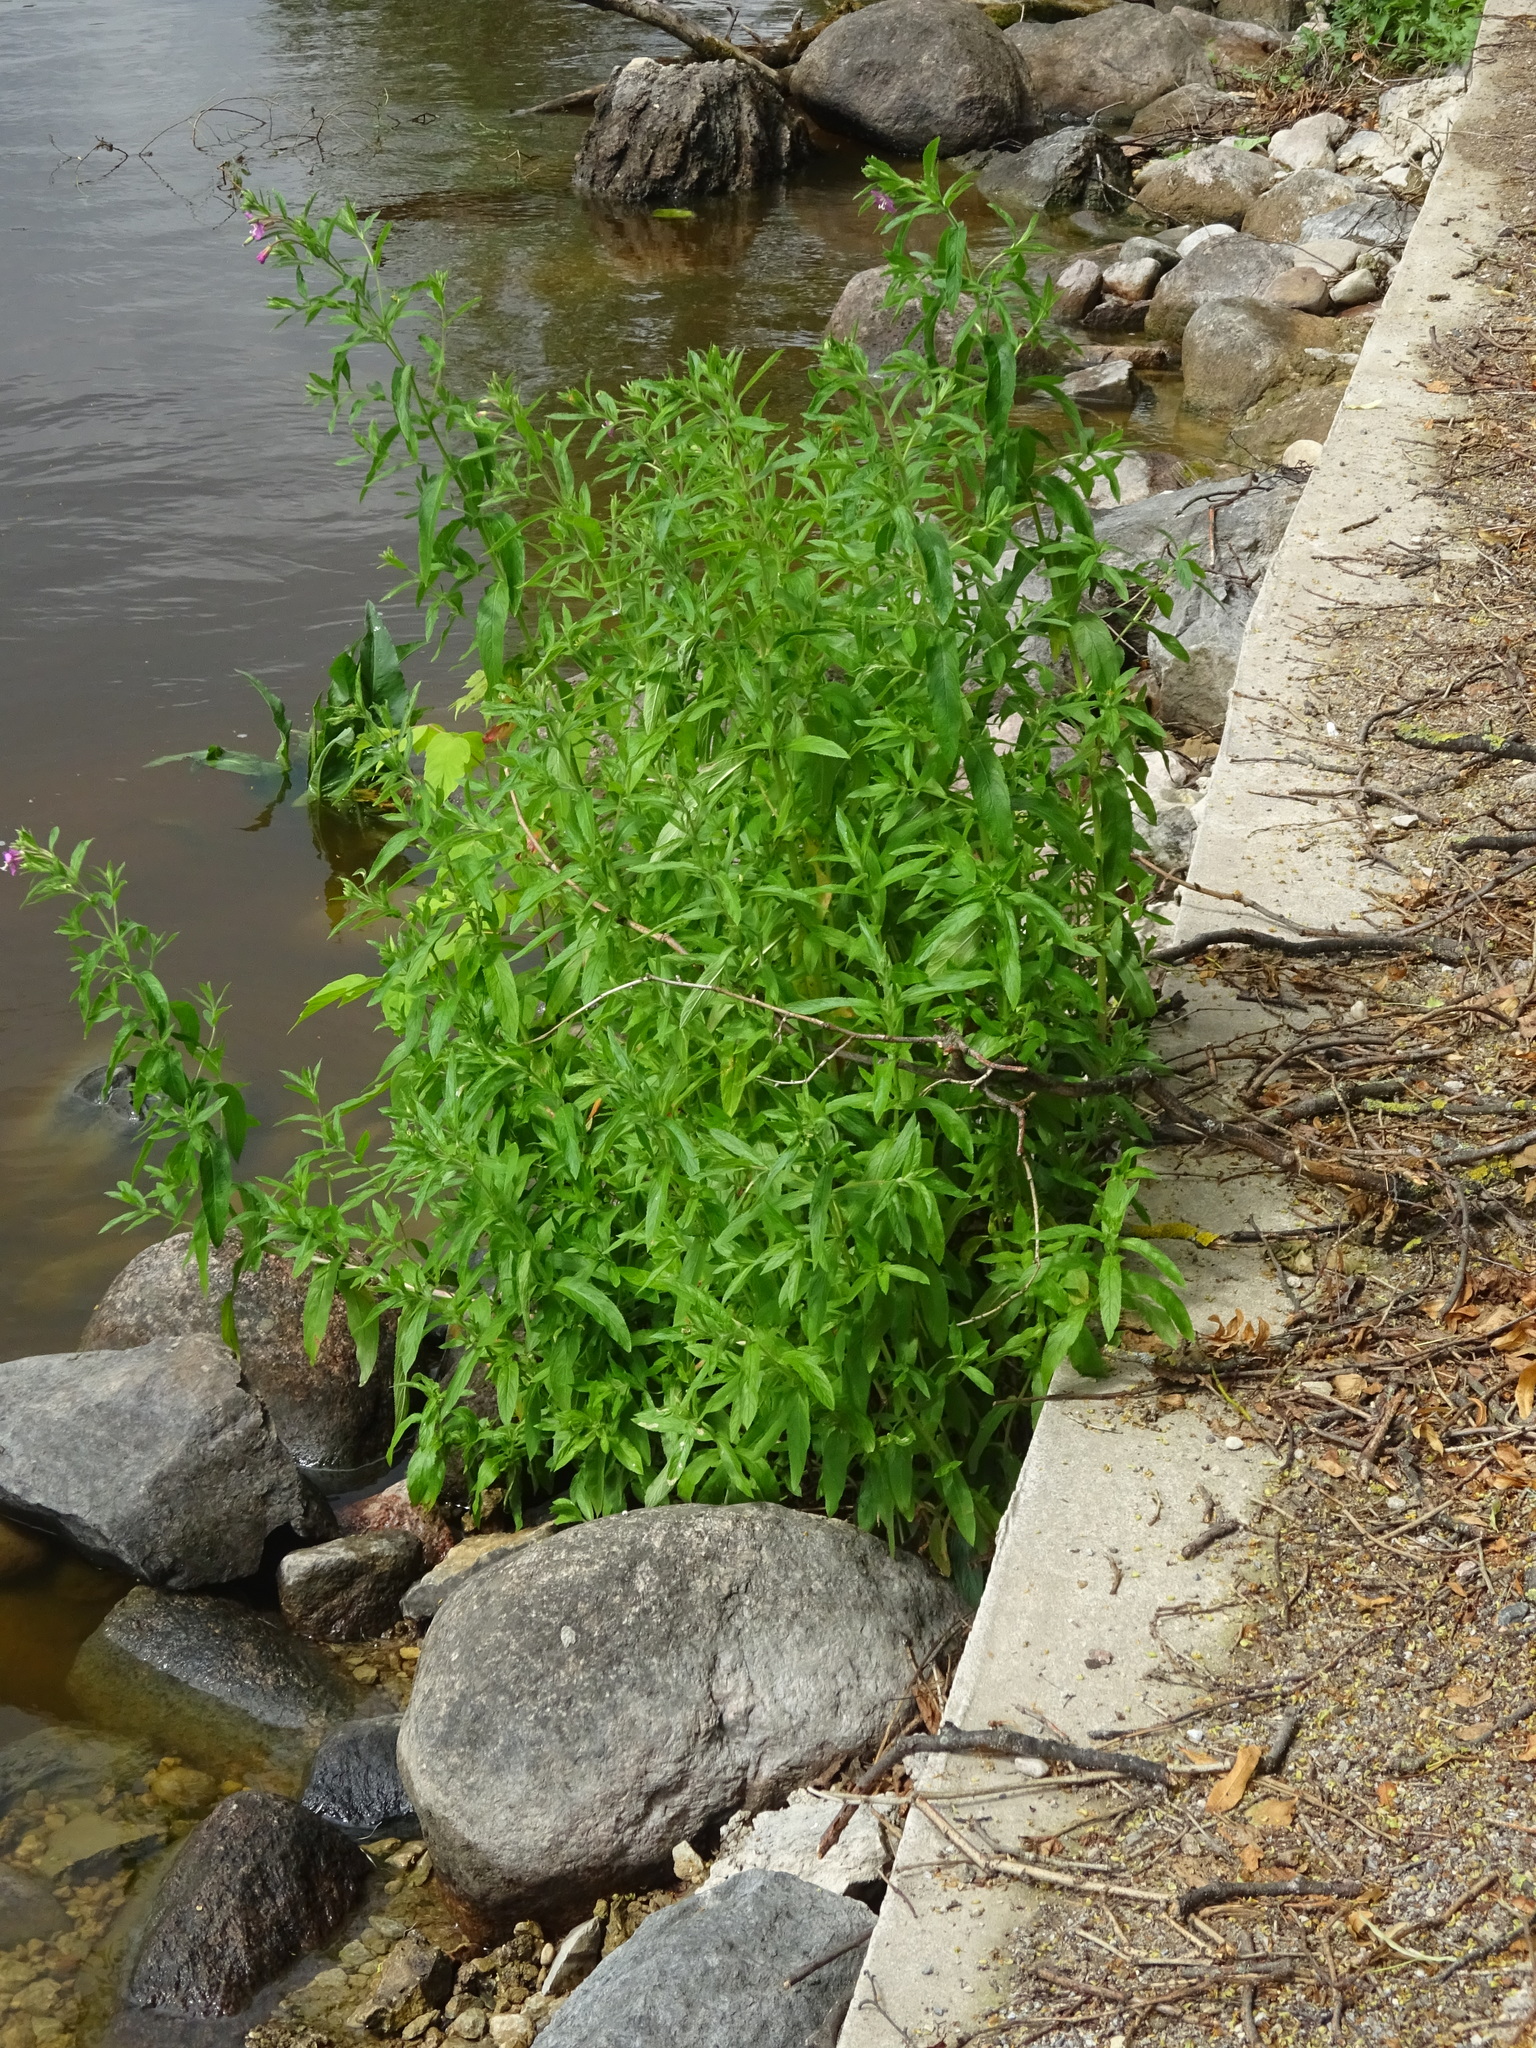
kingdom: Plantae
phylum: Tracheophyta
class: Magnoliopsida
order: Myrtales
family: Onagraceae
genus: Epilobium
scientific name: Epilobium hirsutum
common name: Great willowherb
